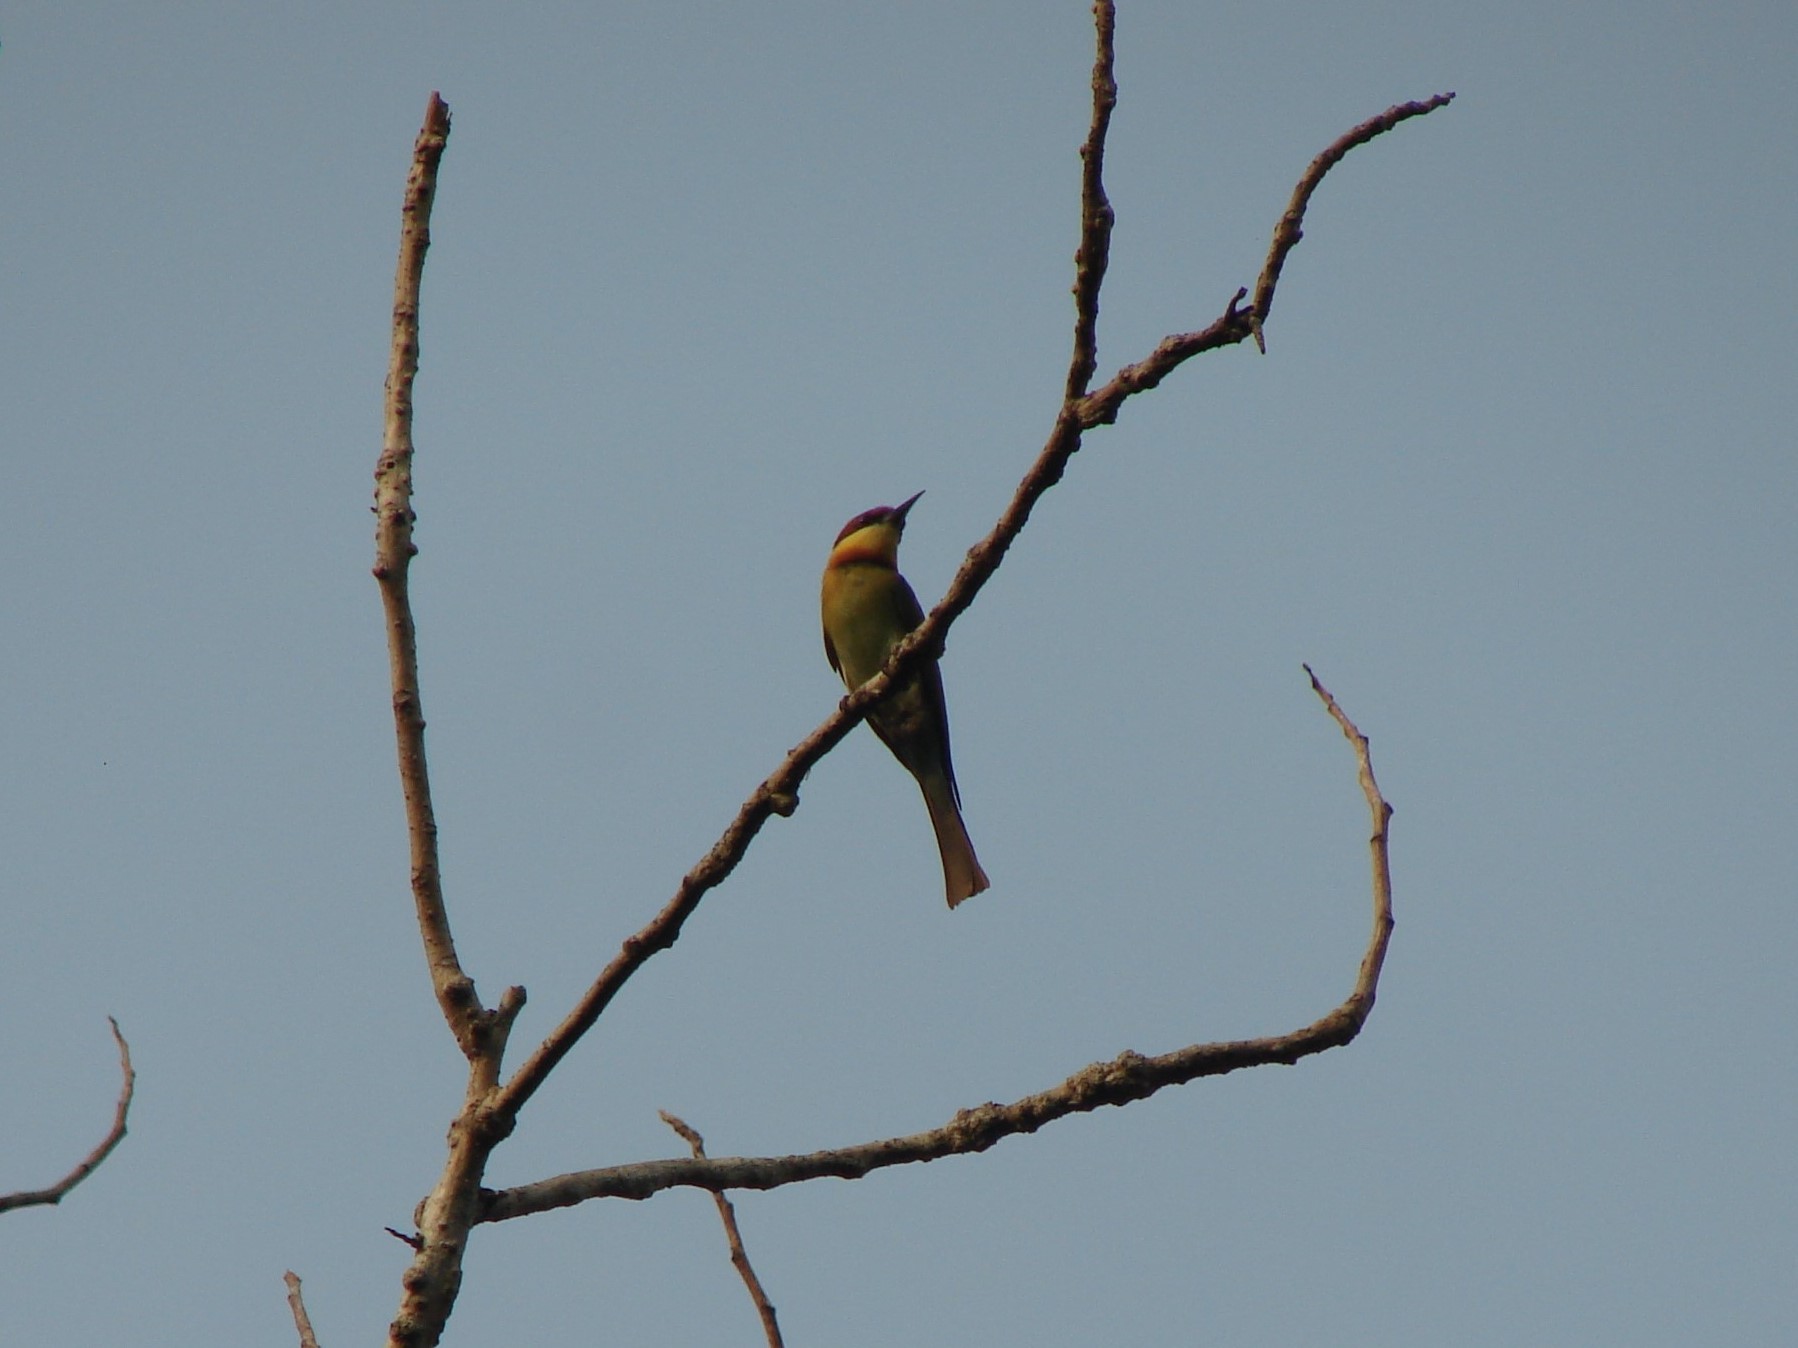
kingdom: Animalia
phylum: Chordata
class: Aves
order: Coraciiformes
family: Meropidae
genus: Merops
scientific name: Merops leschenaulti
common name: Chestnut-headed bee-eater
